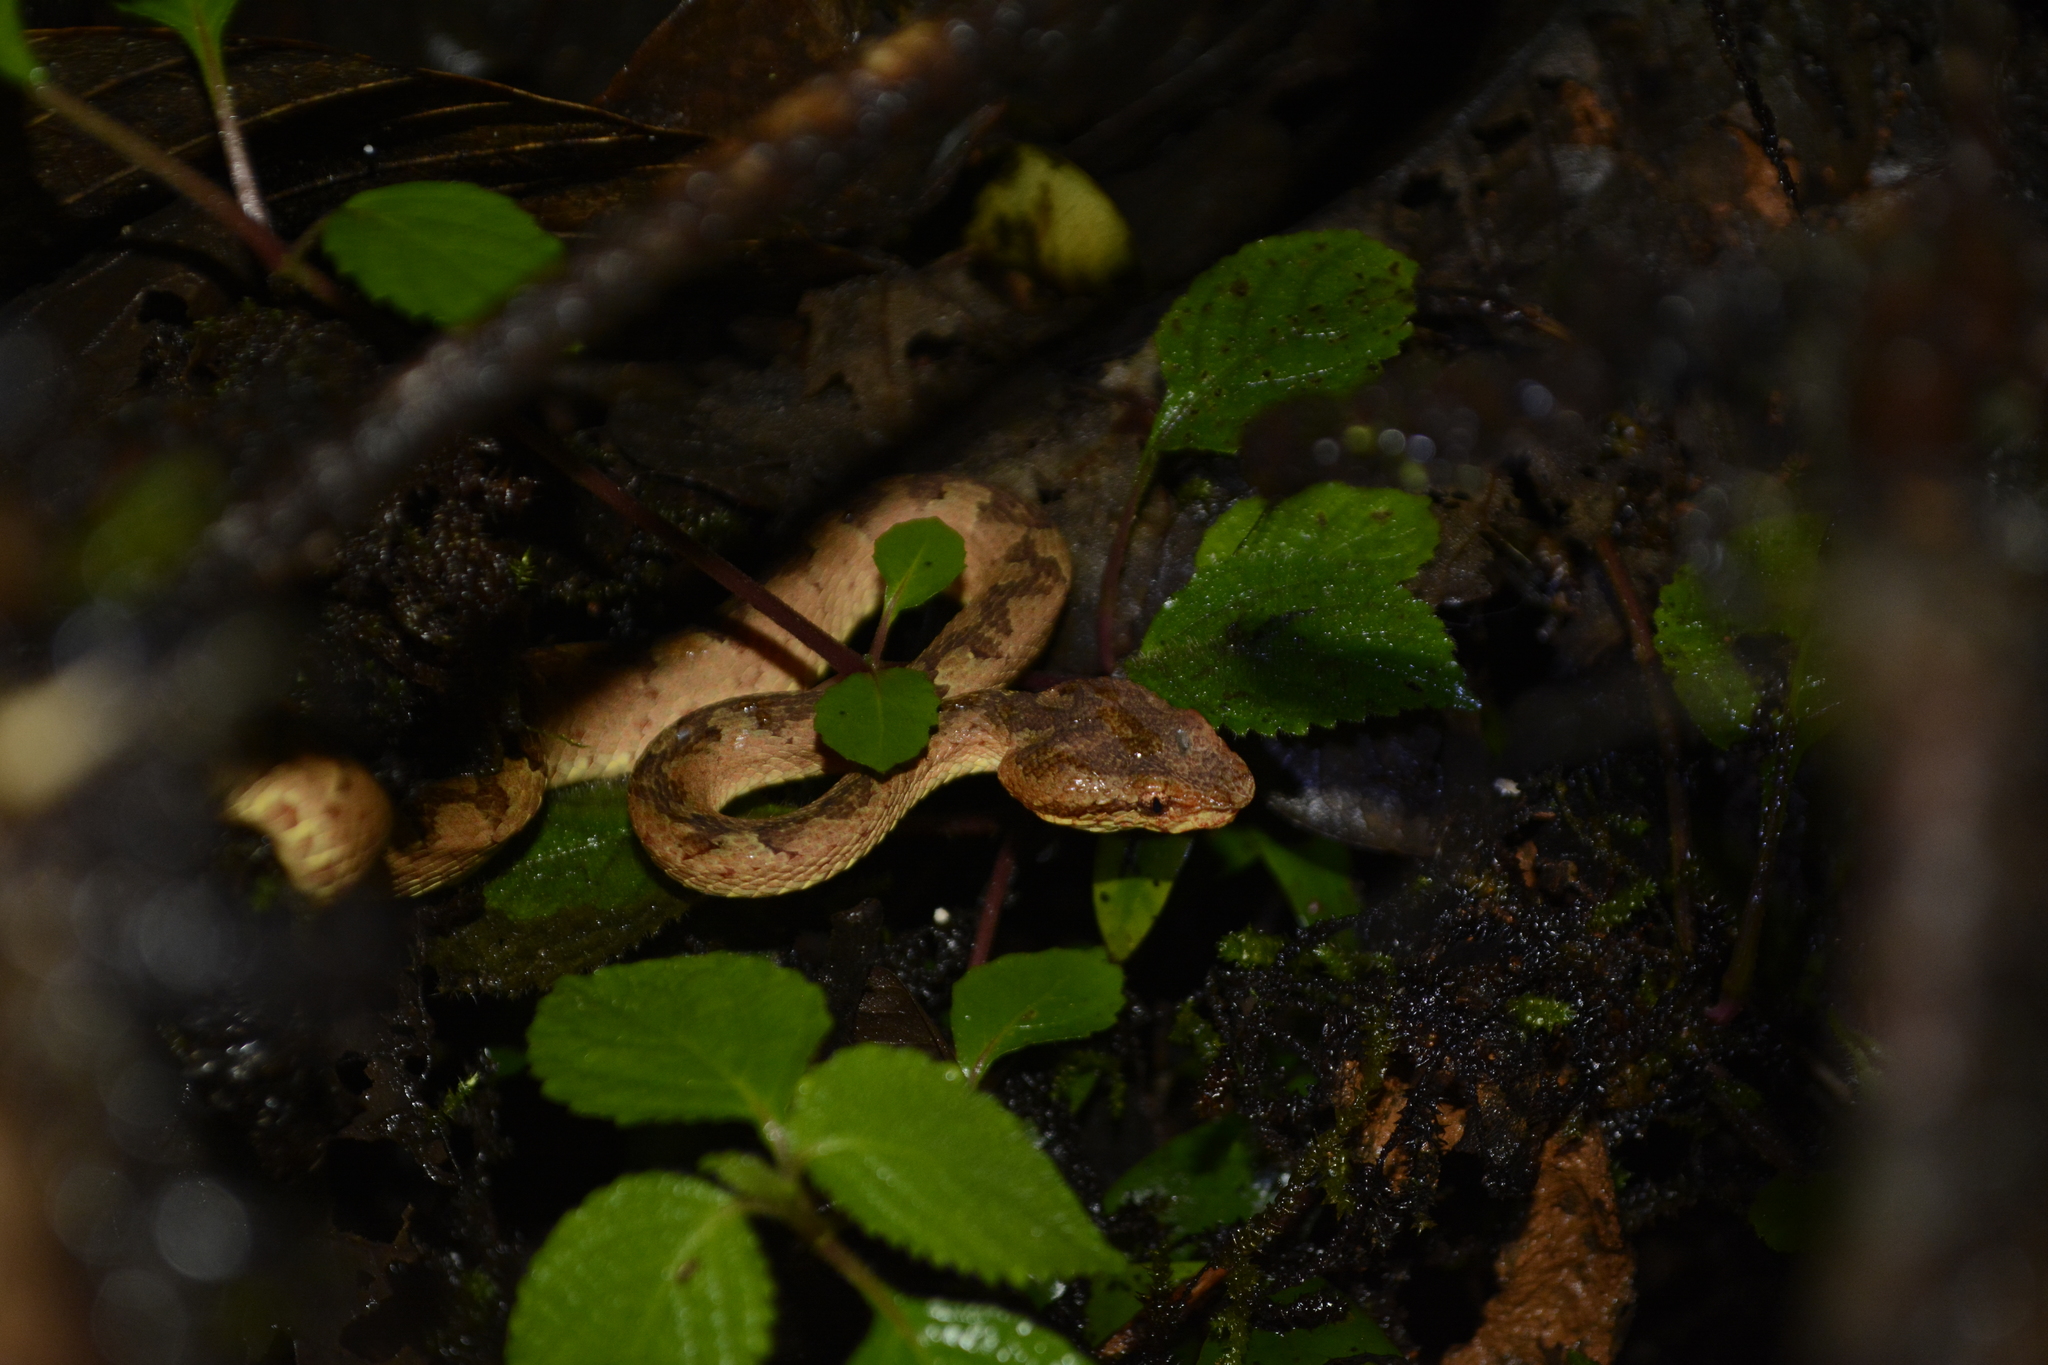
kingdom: Animalia
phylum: Chordata
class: Squamata
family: Viperidae
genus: Craspedocephalus
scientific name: Craspedocephalus malabaricus
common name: Malabarian pit viper
